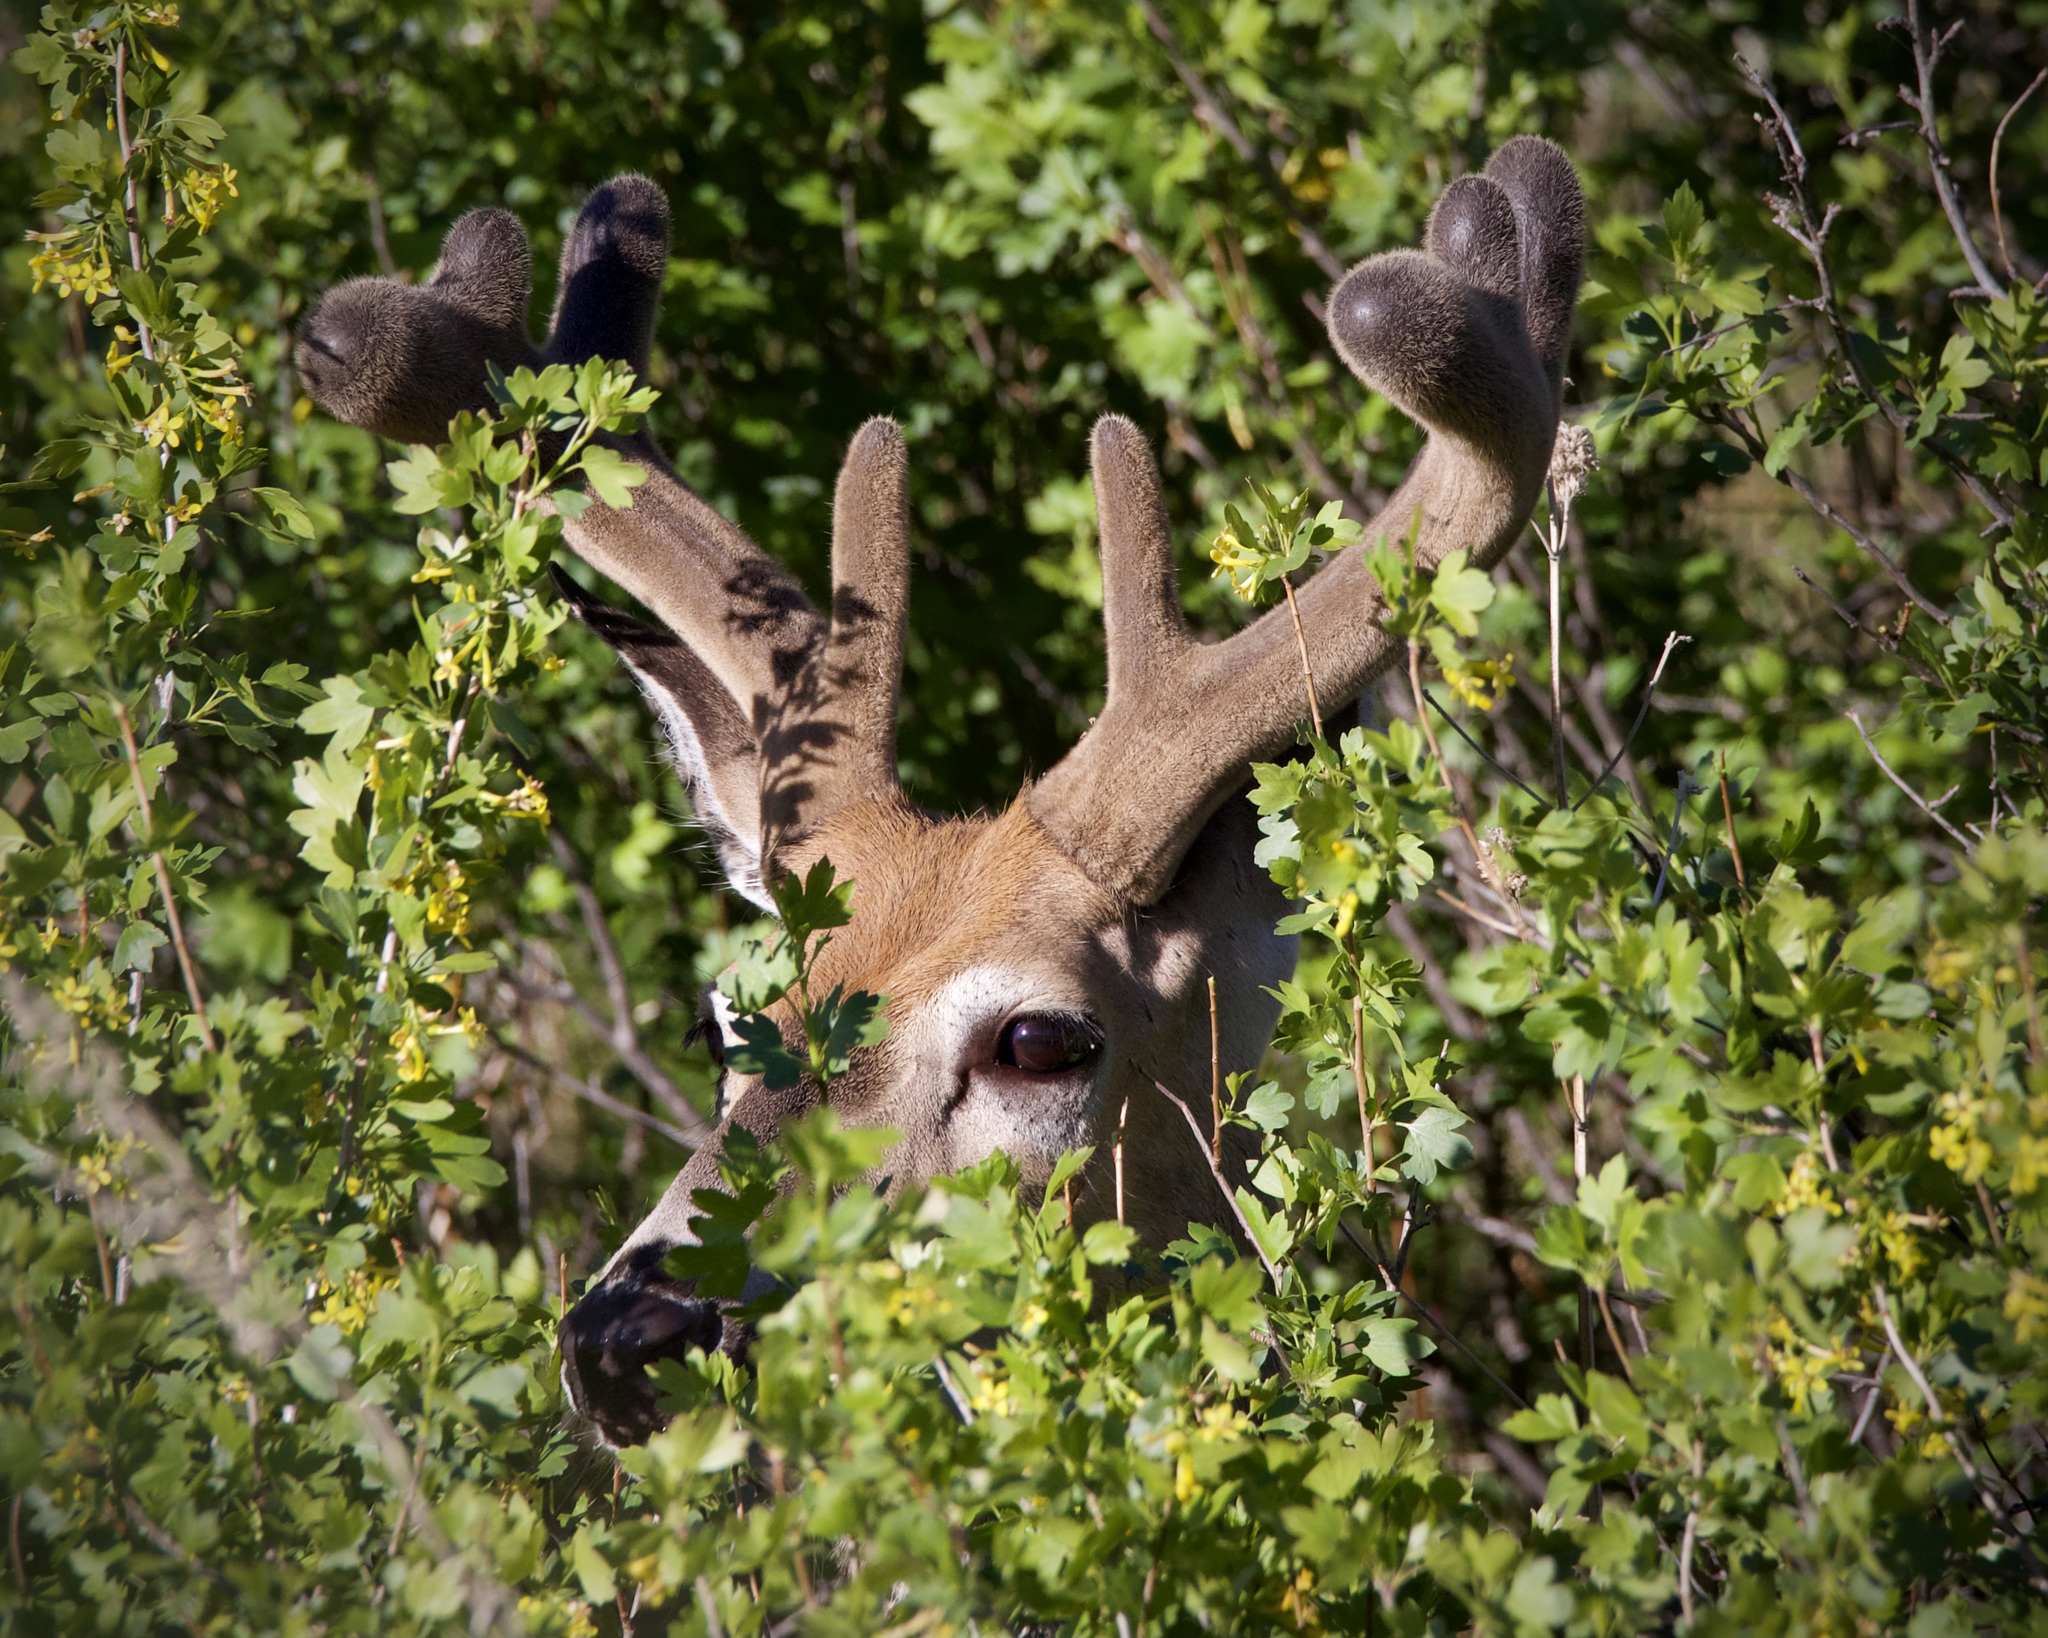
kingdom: Animalia
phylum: Chordata
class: Mammalia
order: Artiodactyla
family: Cervidae
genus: Odocoileus
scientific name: Odocoileus virginianus
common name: White-tailed deer
